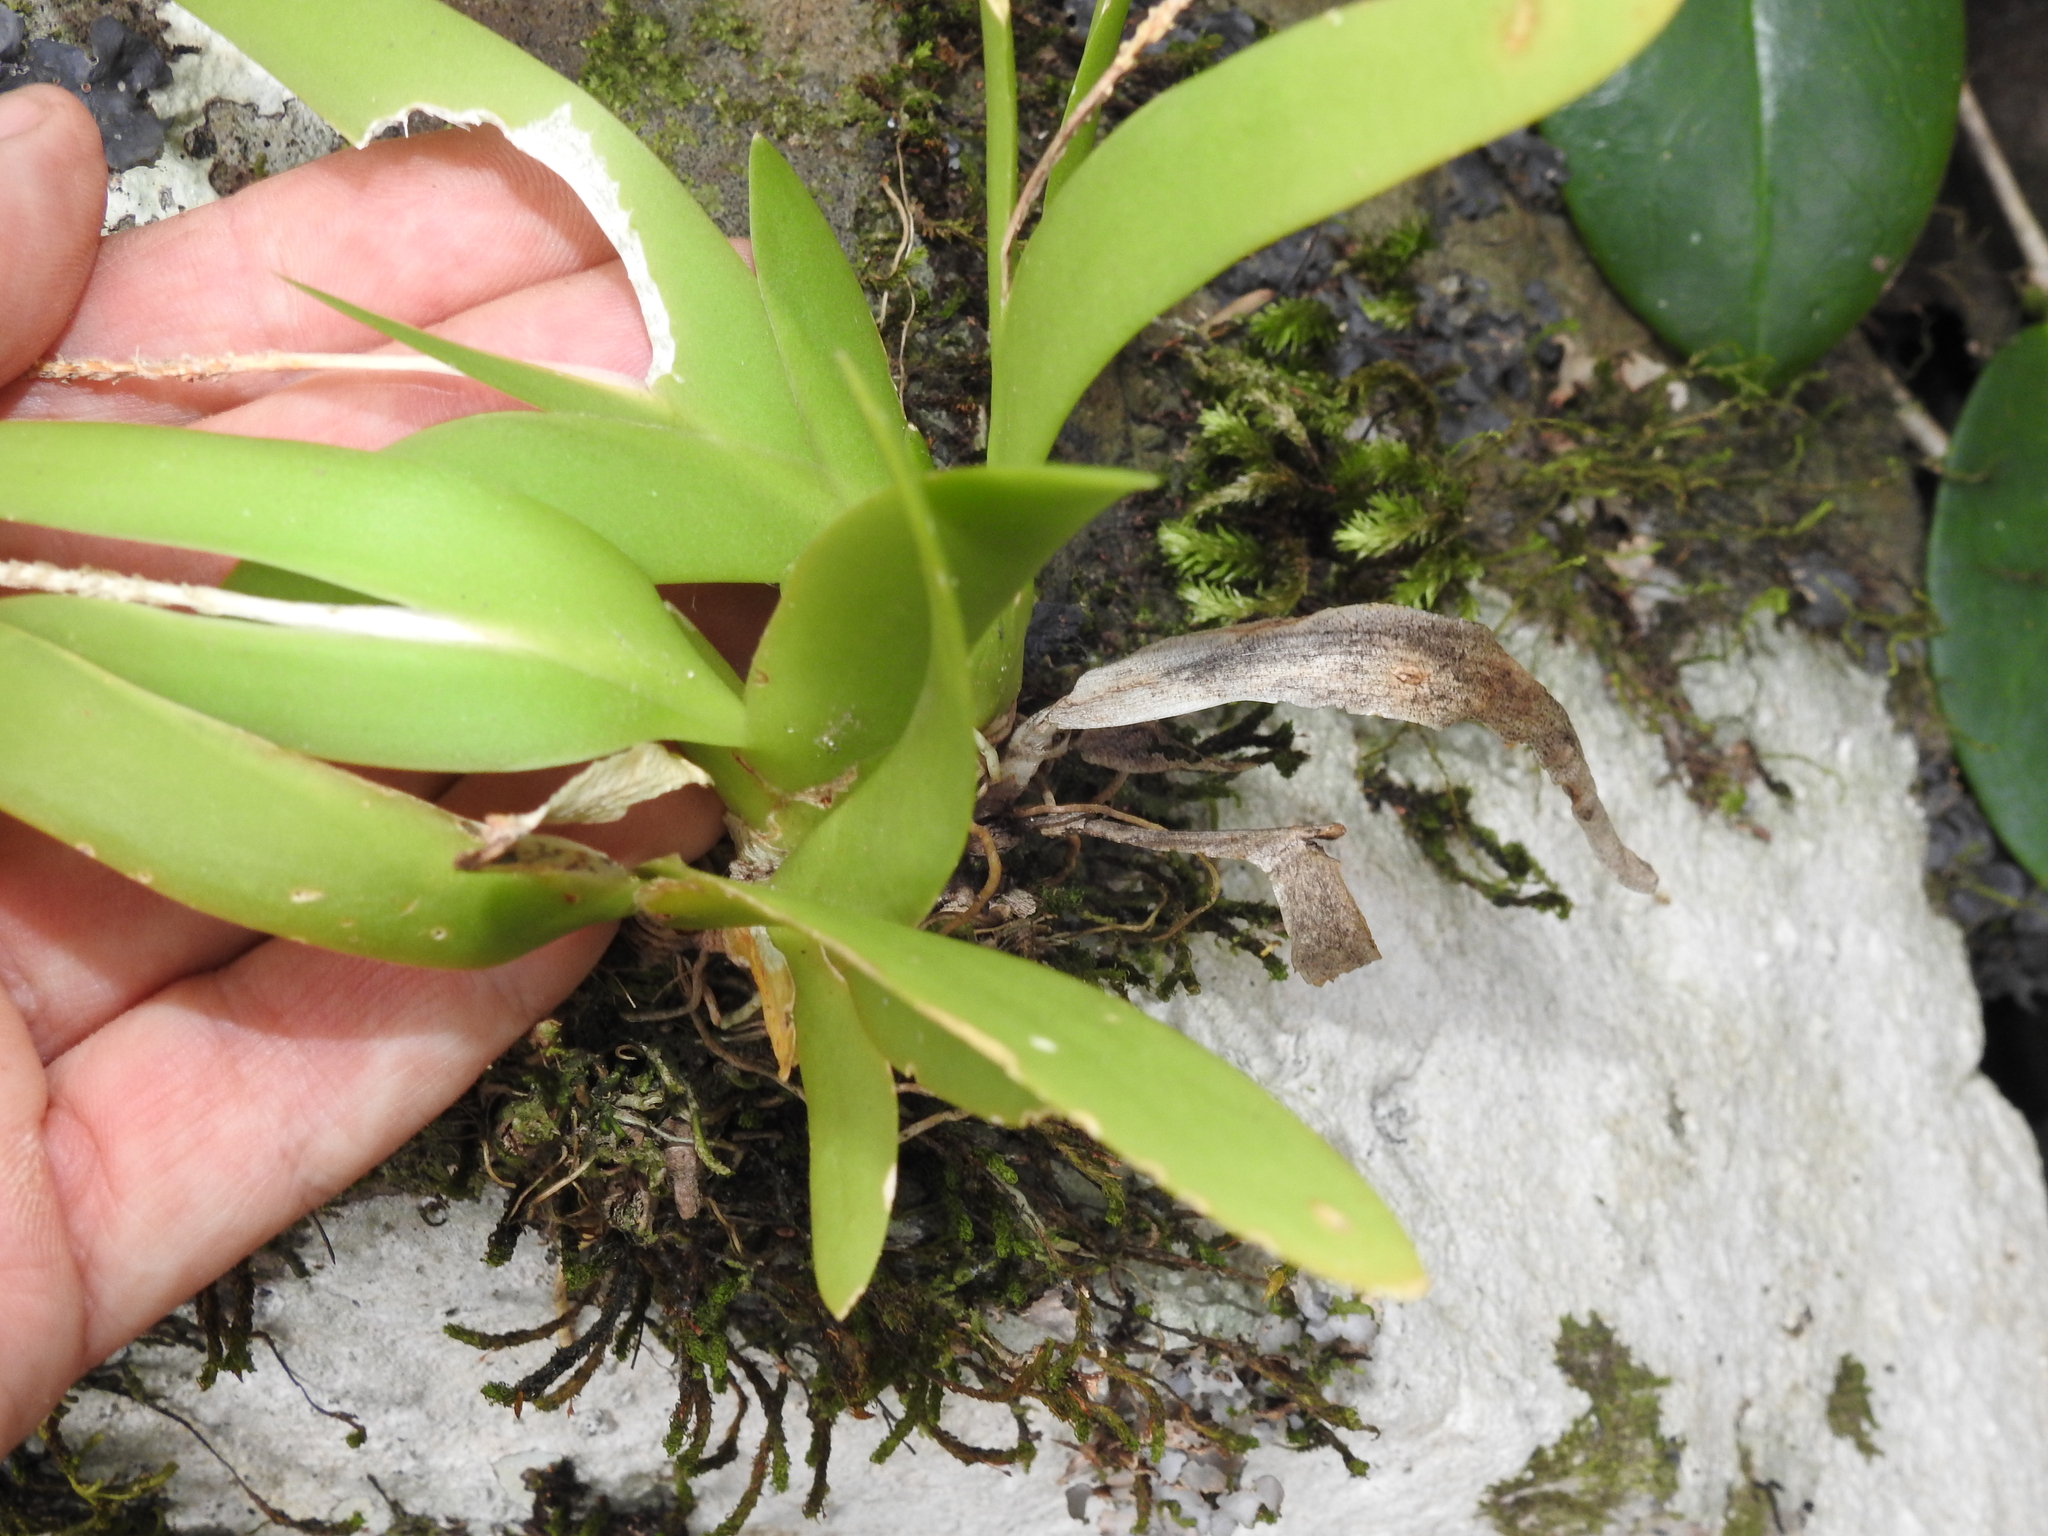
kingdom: Plantae
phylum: Tracheophyta
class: Liliopsida
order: Asparagales
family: Orchidaceae
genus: Oberonia
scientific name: Oberonia complanata
